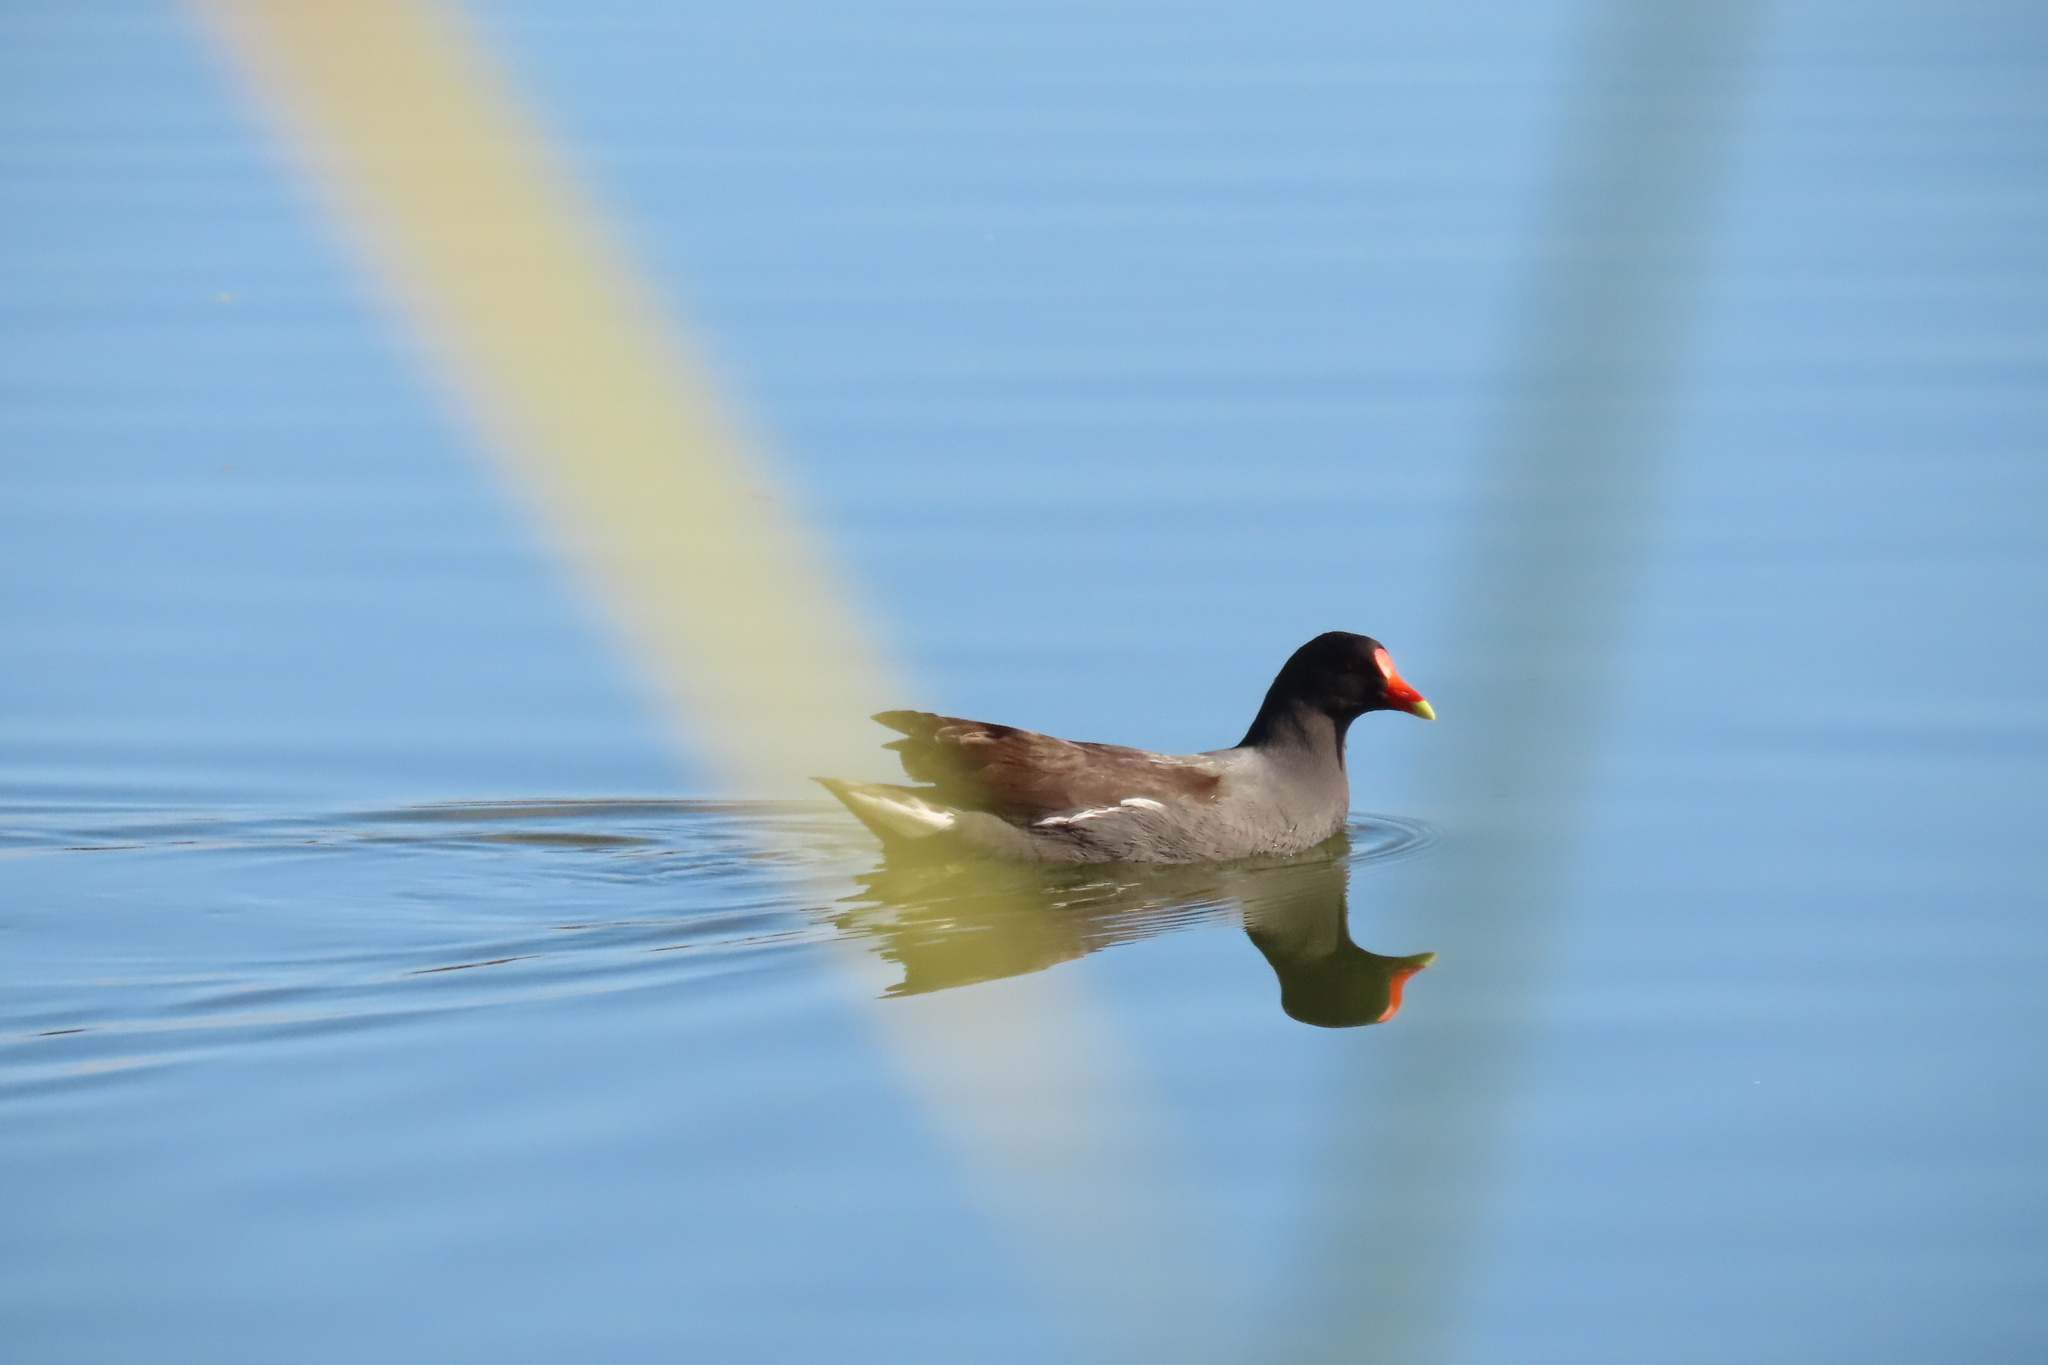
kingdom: Animalia
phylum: Chordata
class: Aves
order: Gruiformes
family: Rallidae
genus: Gallinula
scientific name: Gallinula chloropus
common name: Common moorhen
